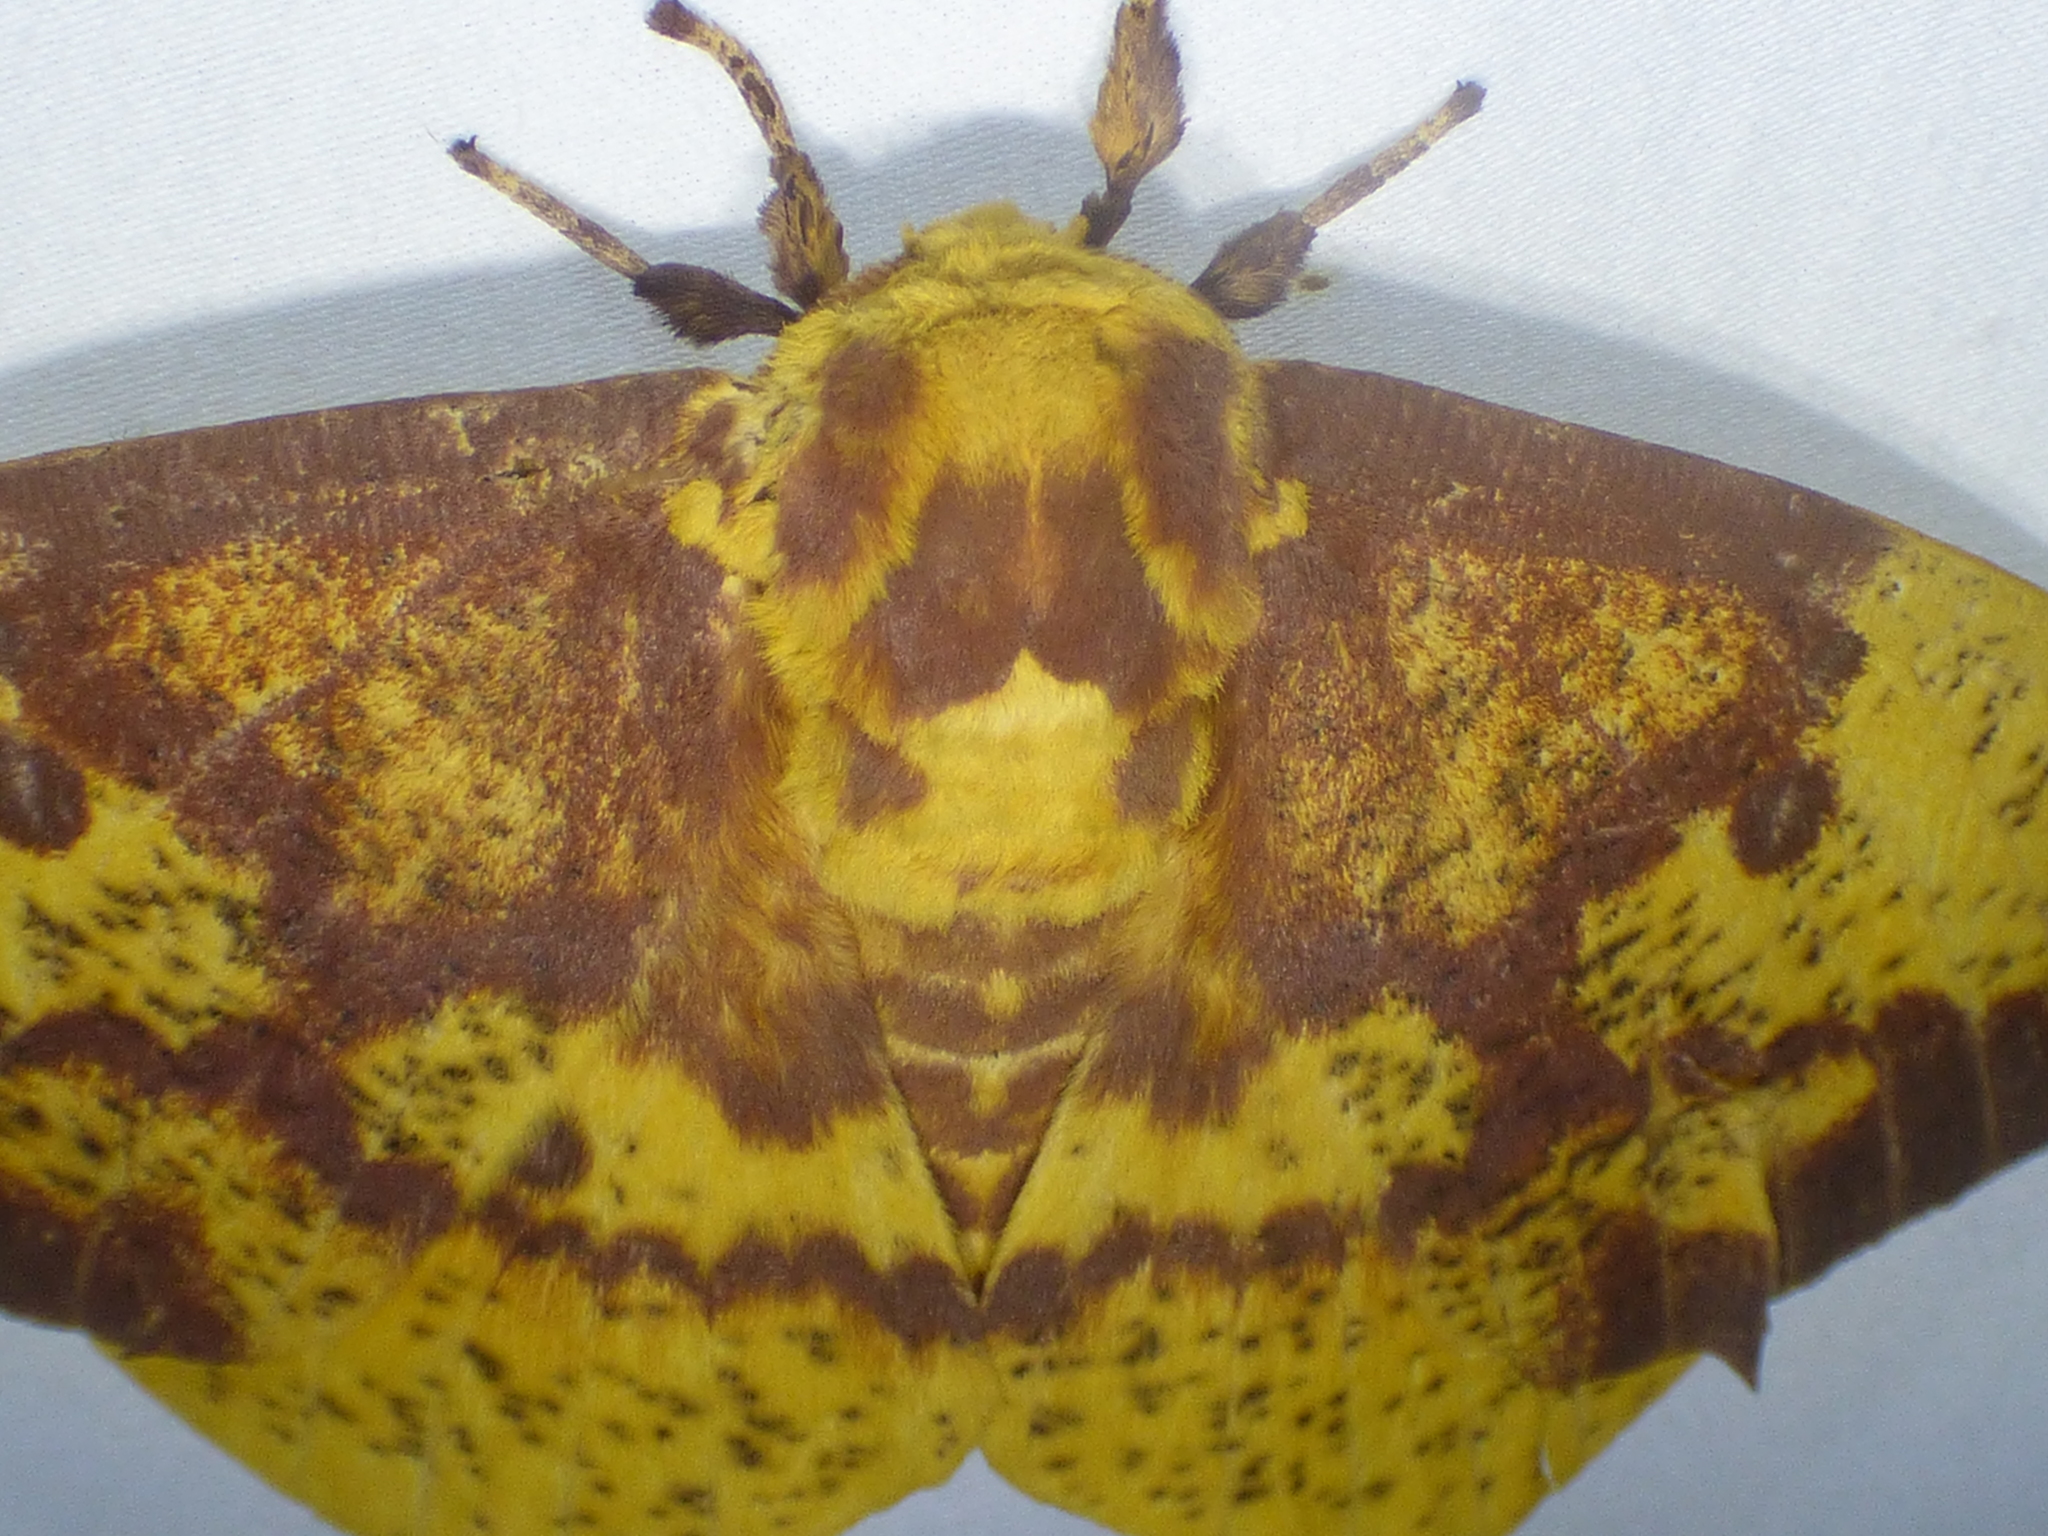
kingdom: Animalia
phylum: Arthropoda
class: Insecta
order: Lepidoptera
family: Saturniidae
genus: Eacles
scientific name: Eacles imperialis
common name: Imperial moth
